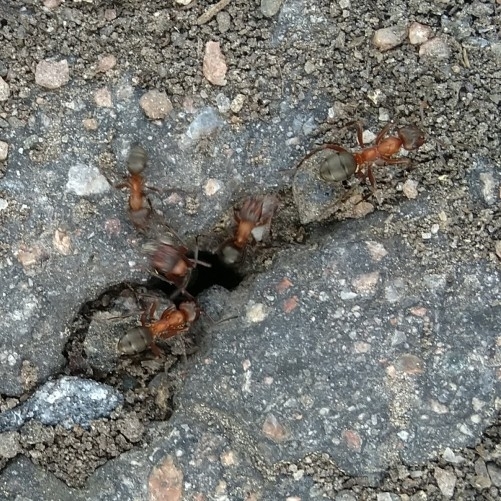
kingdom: Animalia
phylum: Arthropoda
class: Insecta
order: Hymenoptera
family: Formicidae
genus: Formica
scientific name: Formica sanguinea
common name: Blood-red ant
